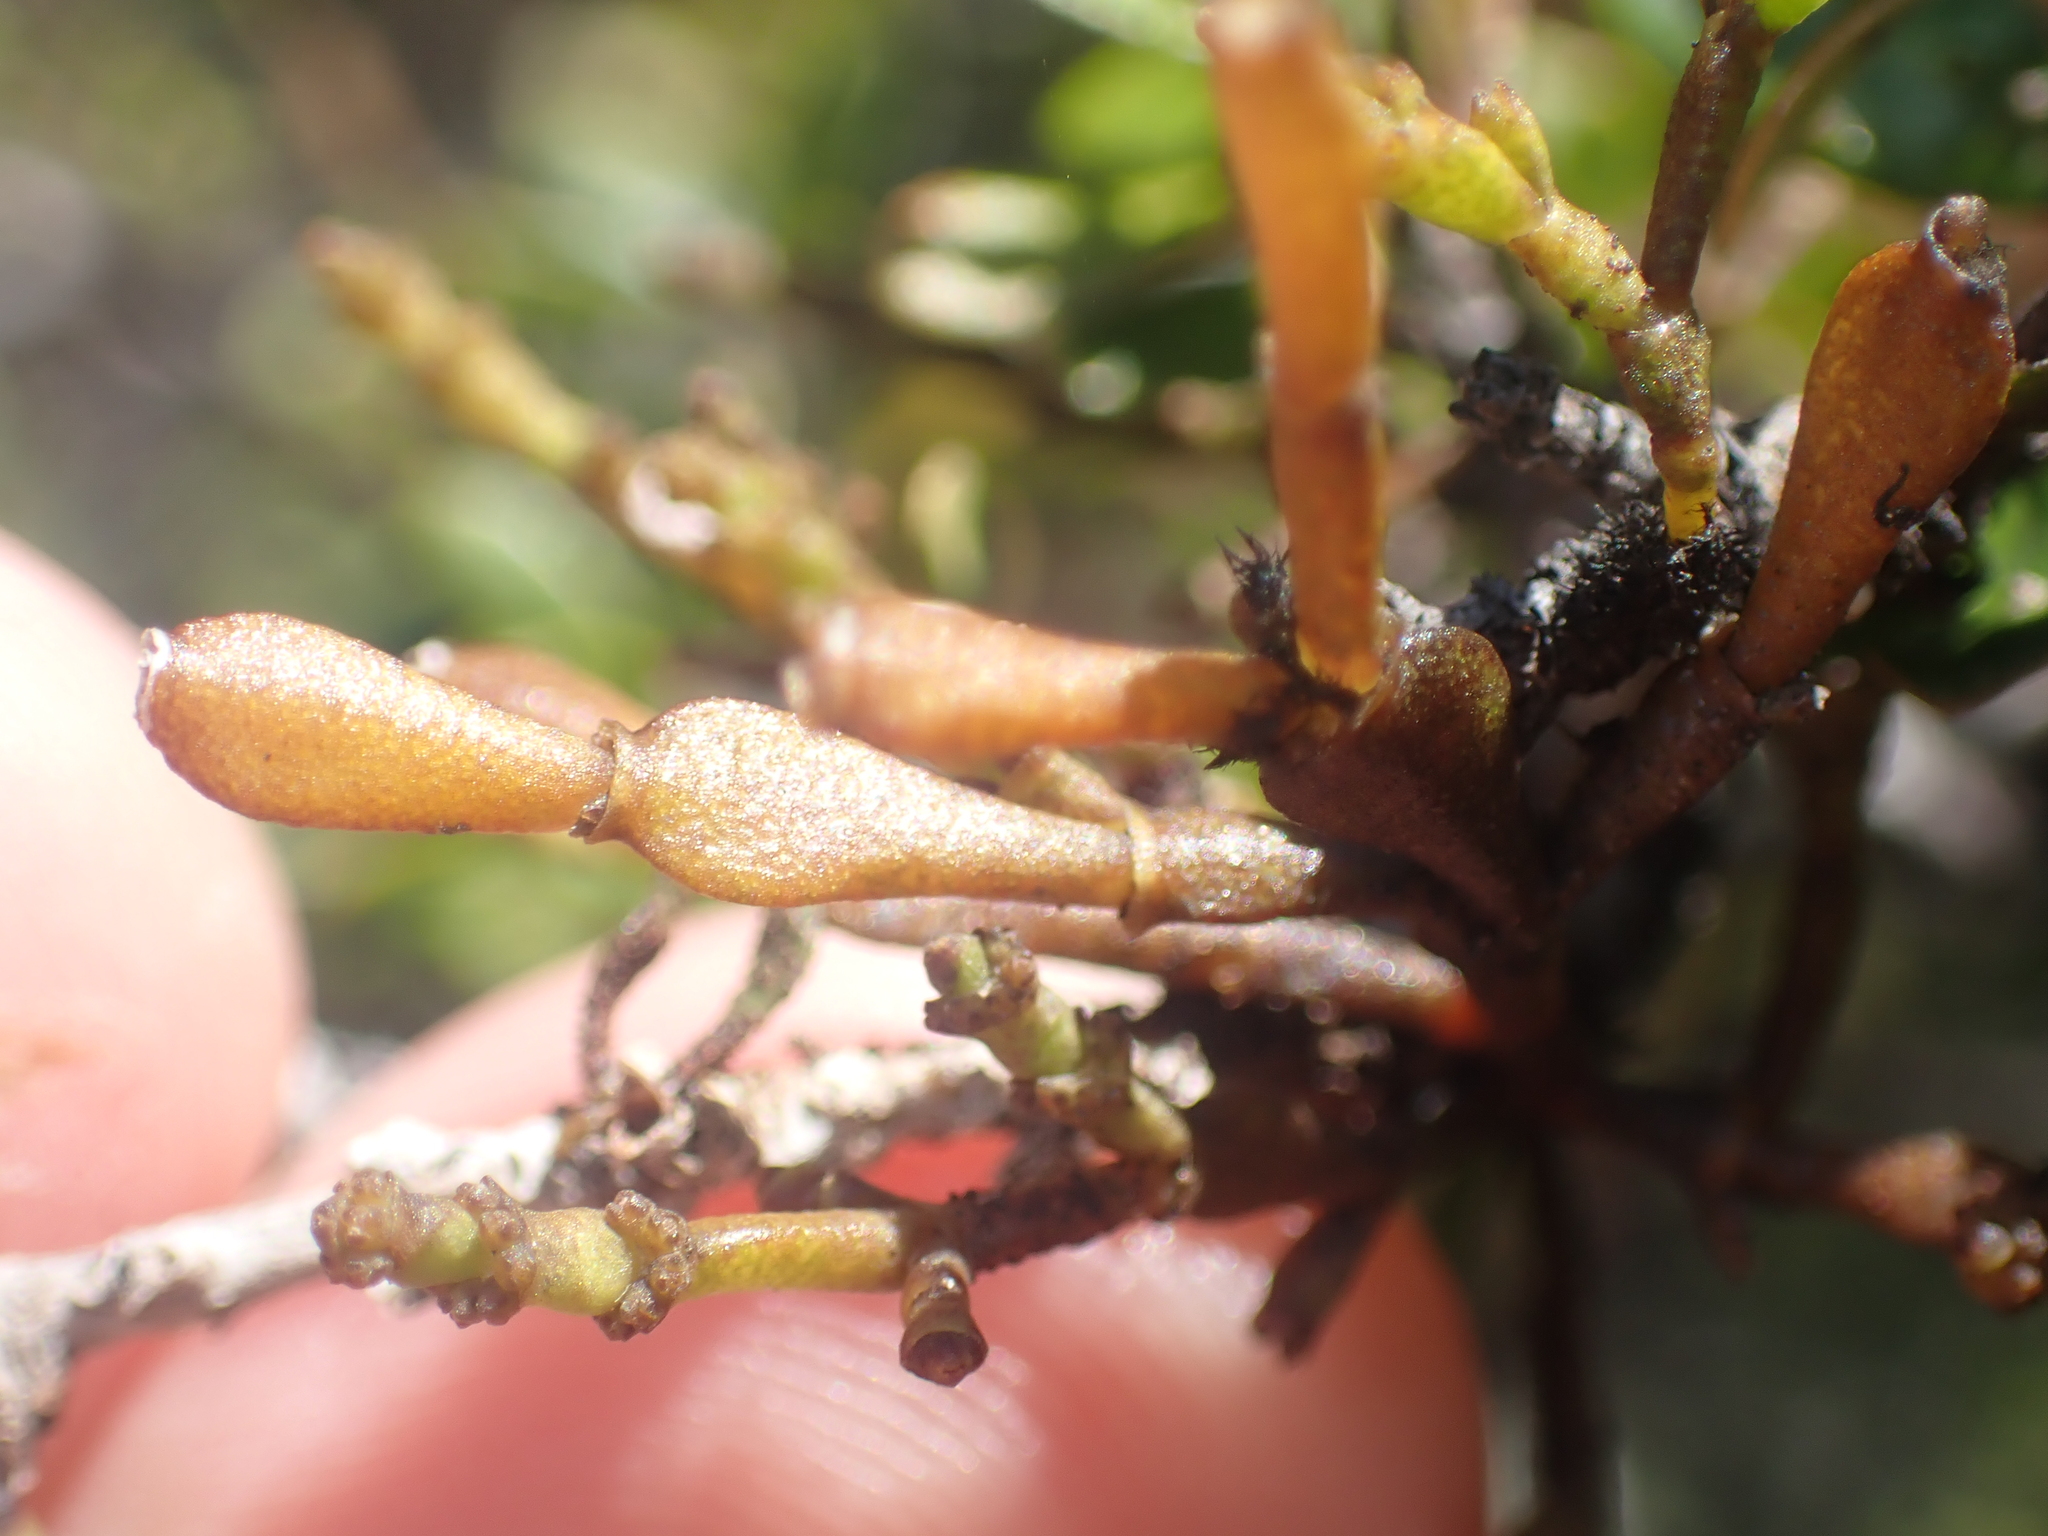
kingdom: Plantae
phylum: Tracheophyta
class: Magnoliopsida
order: Santalales
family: Viscaceae
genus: Korthalsella
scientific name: Korthalsella clavata
